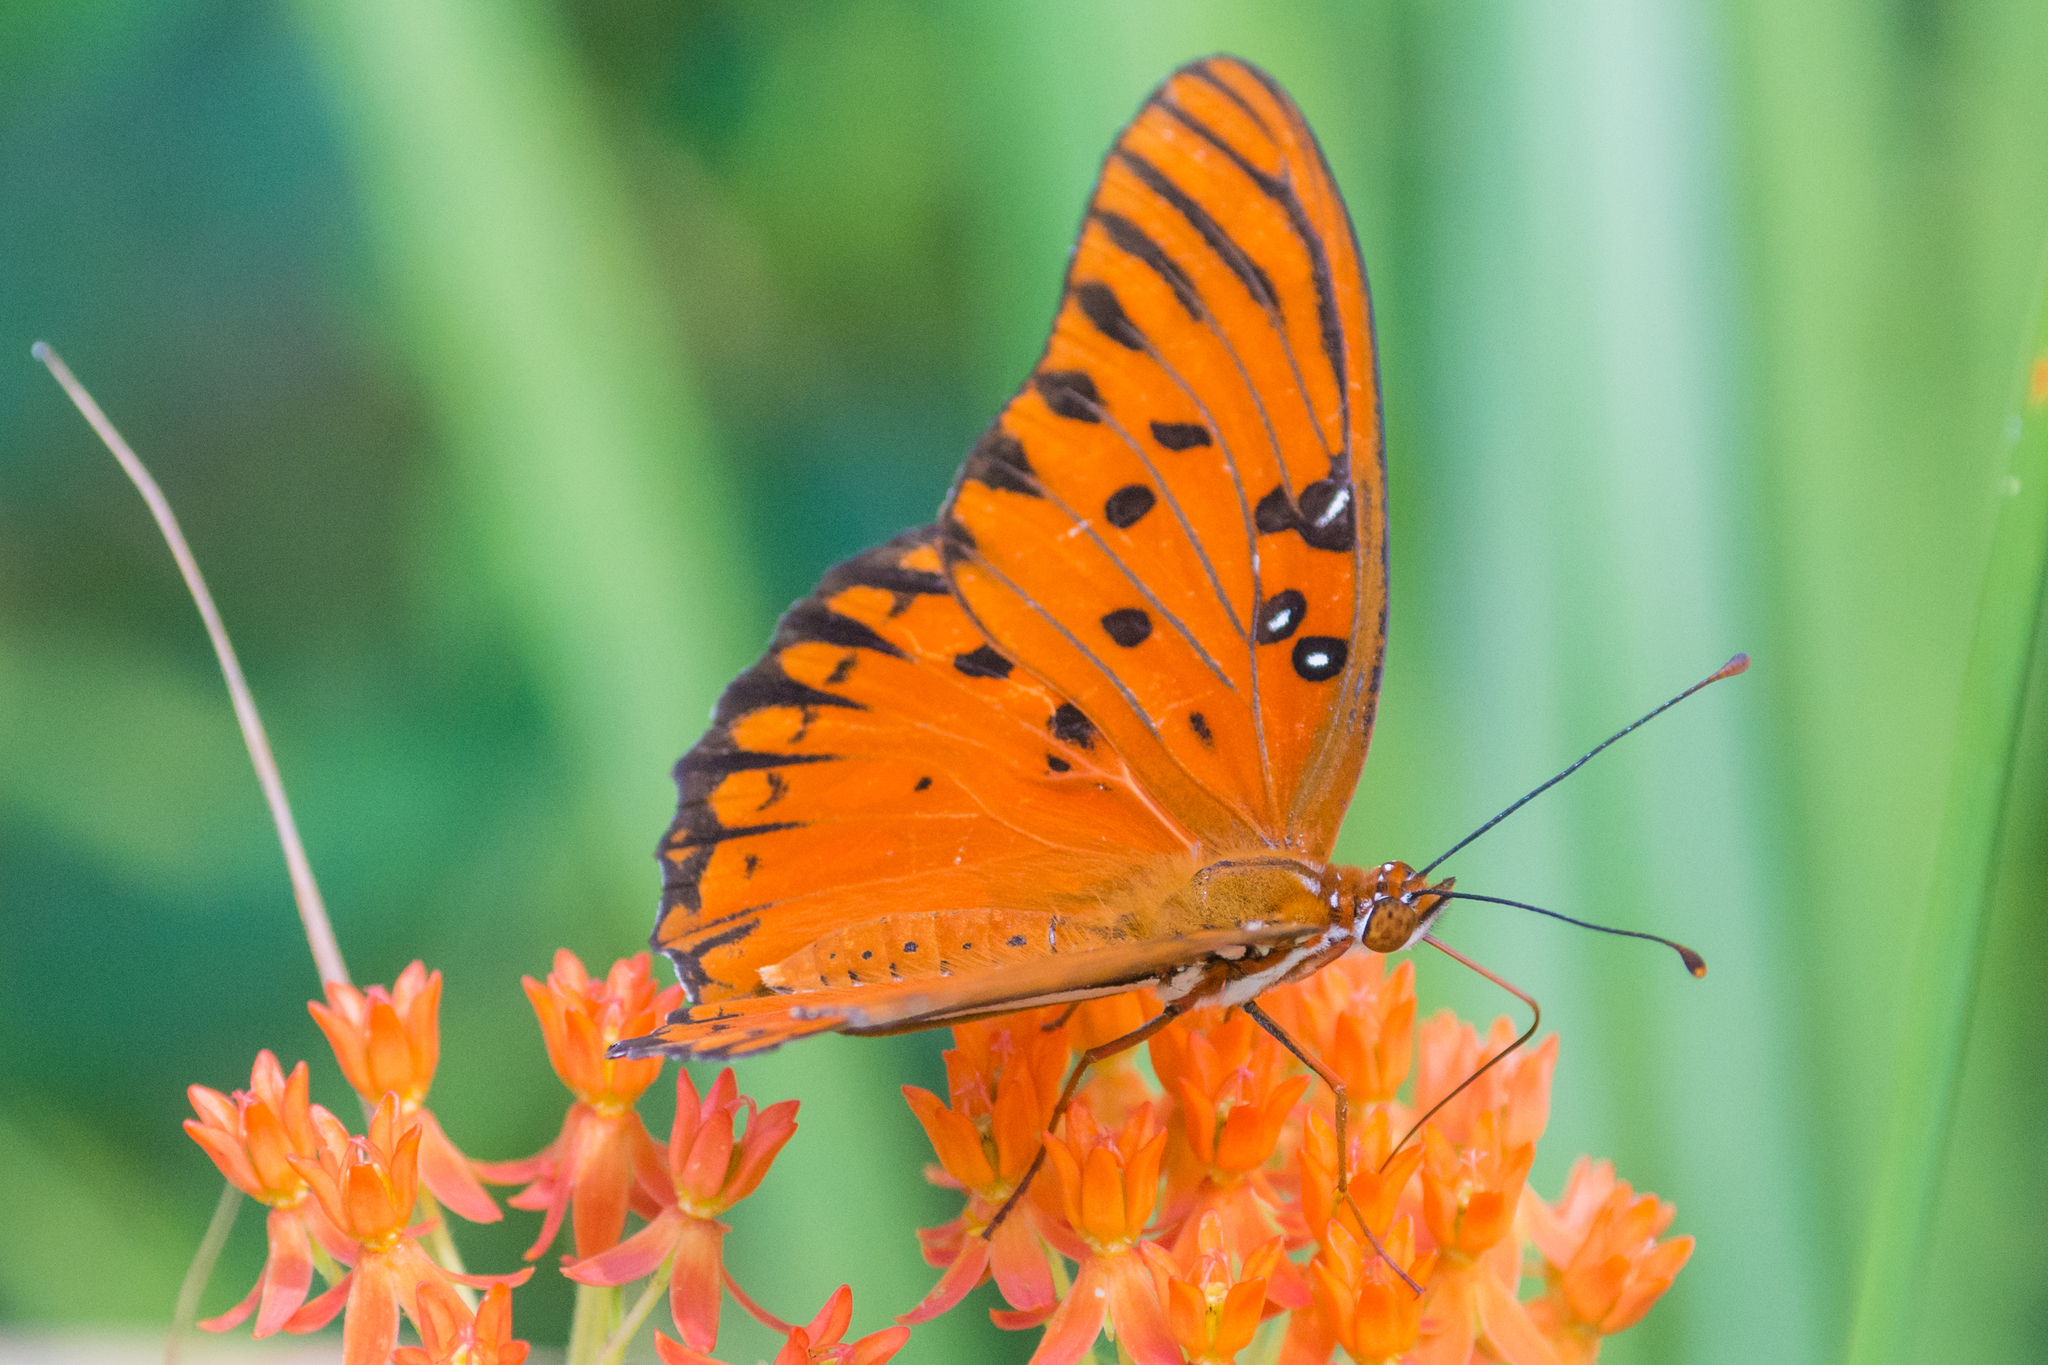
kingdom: Animalia
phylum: Arthropoda
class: Insecta
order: Lepidoptera
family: Nymphalidae
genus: Dione
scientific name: Dione vanillae
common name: Gulf fritillary
